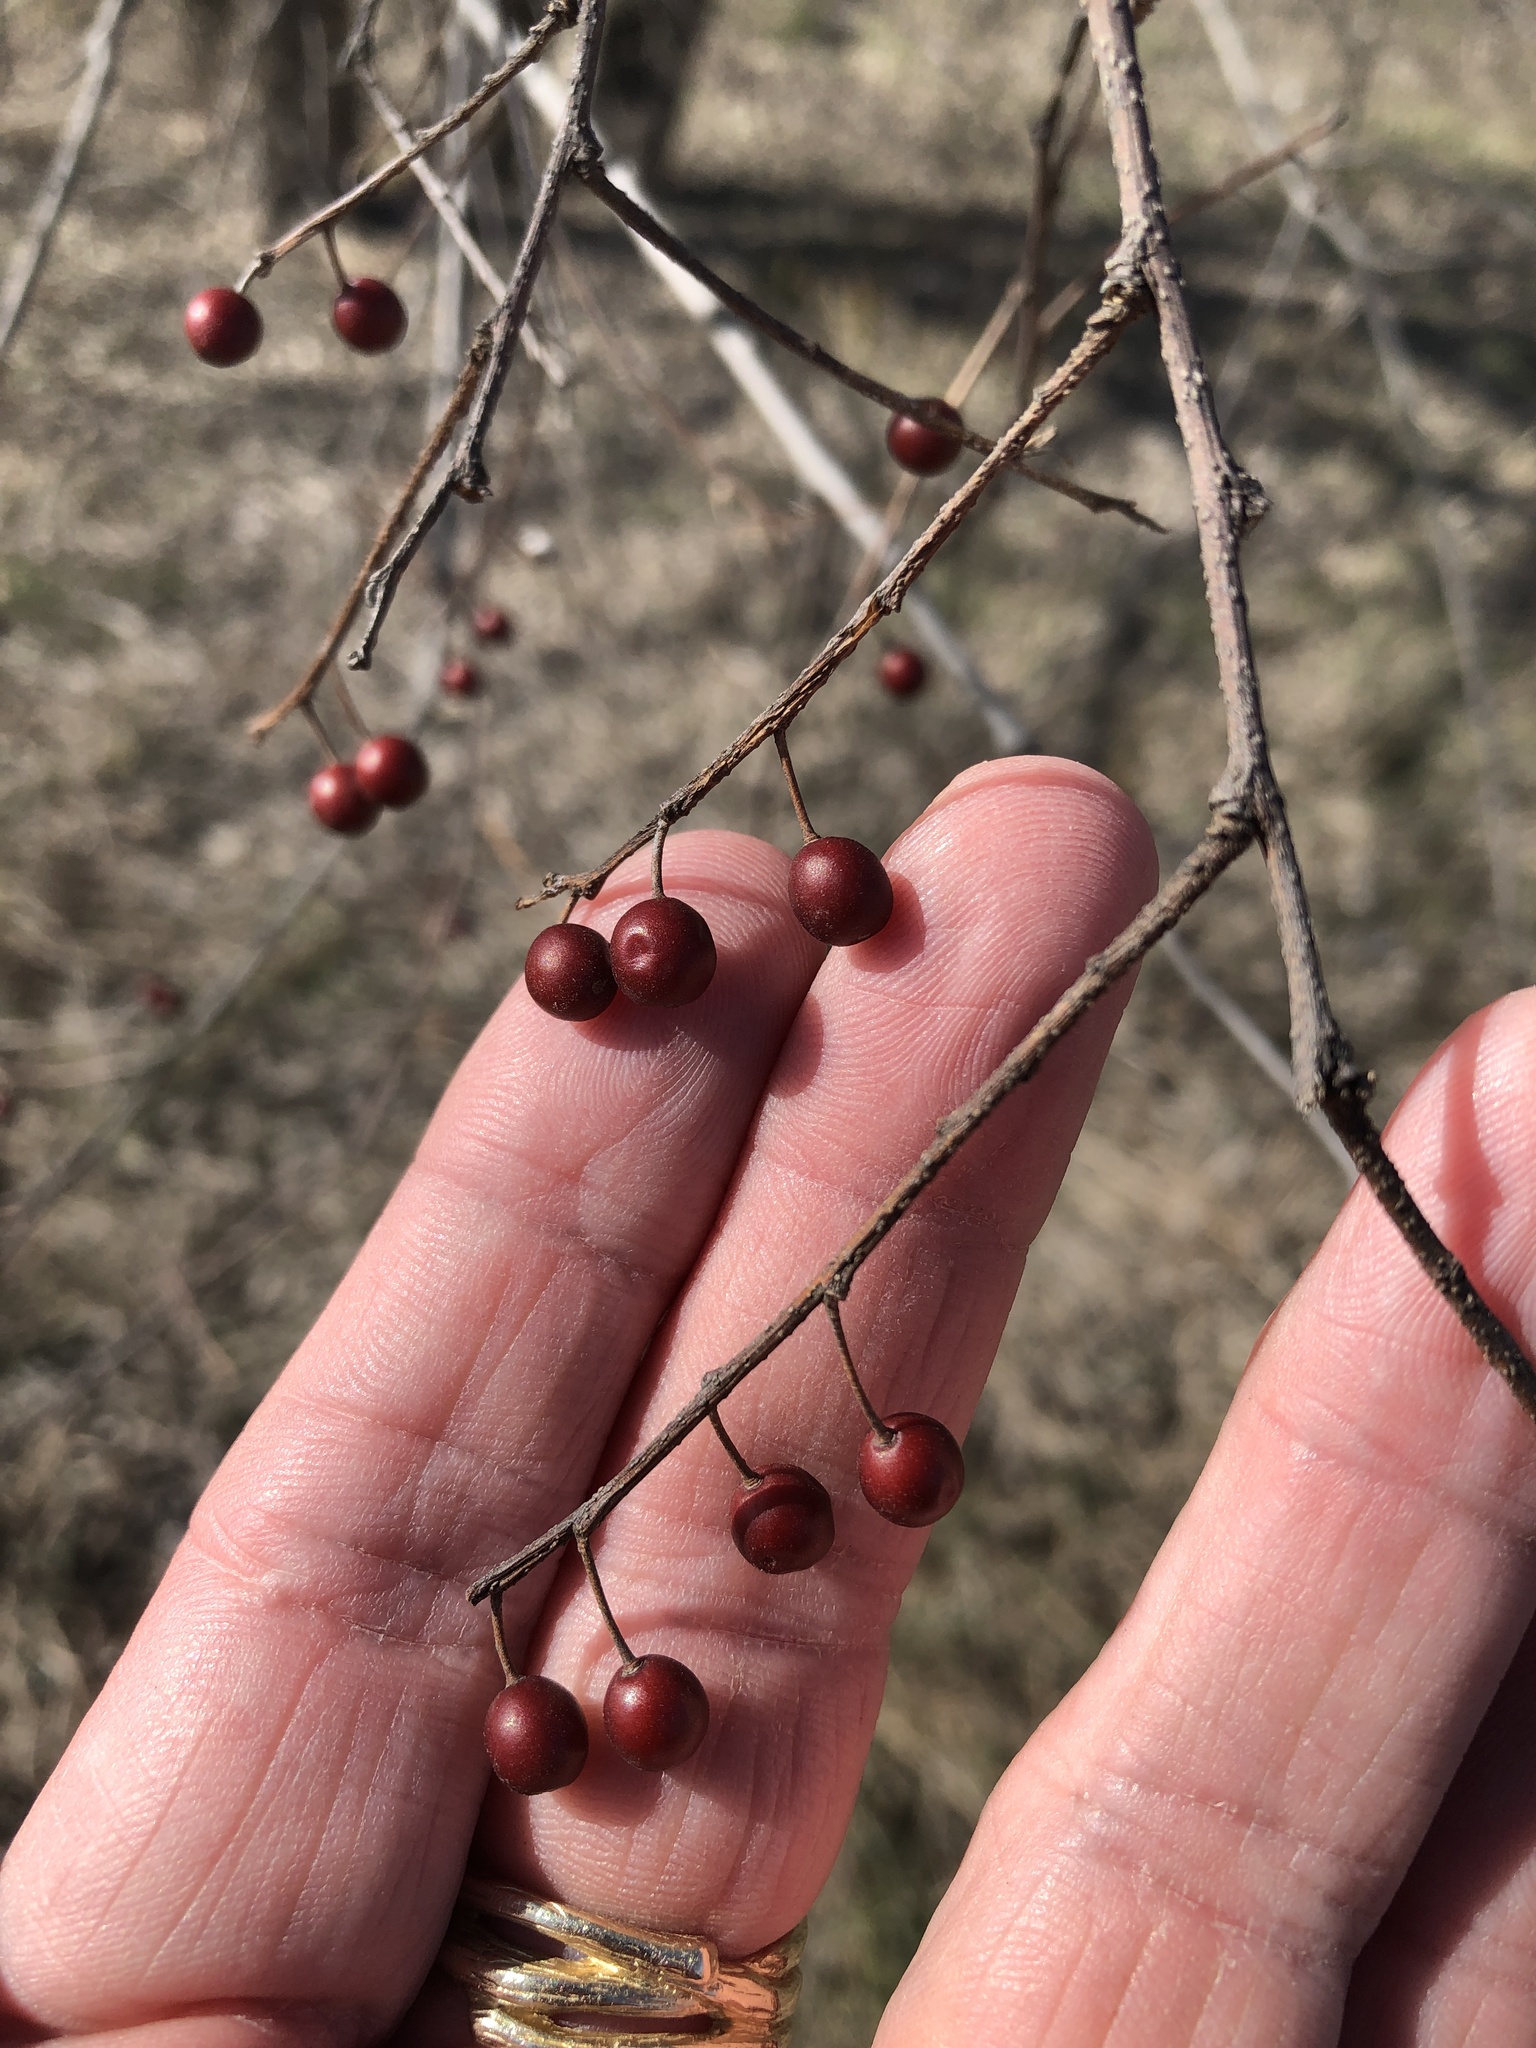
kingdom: Plantae
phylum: Tracheophyta
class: Magnoliopsida
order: Rosales
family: Cannabaceae
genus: Celtis
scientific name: Celtis laevigata
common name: Sugarberry
